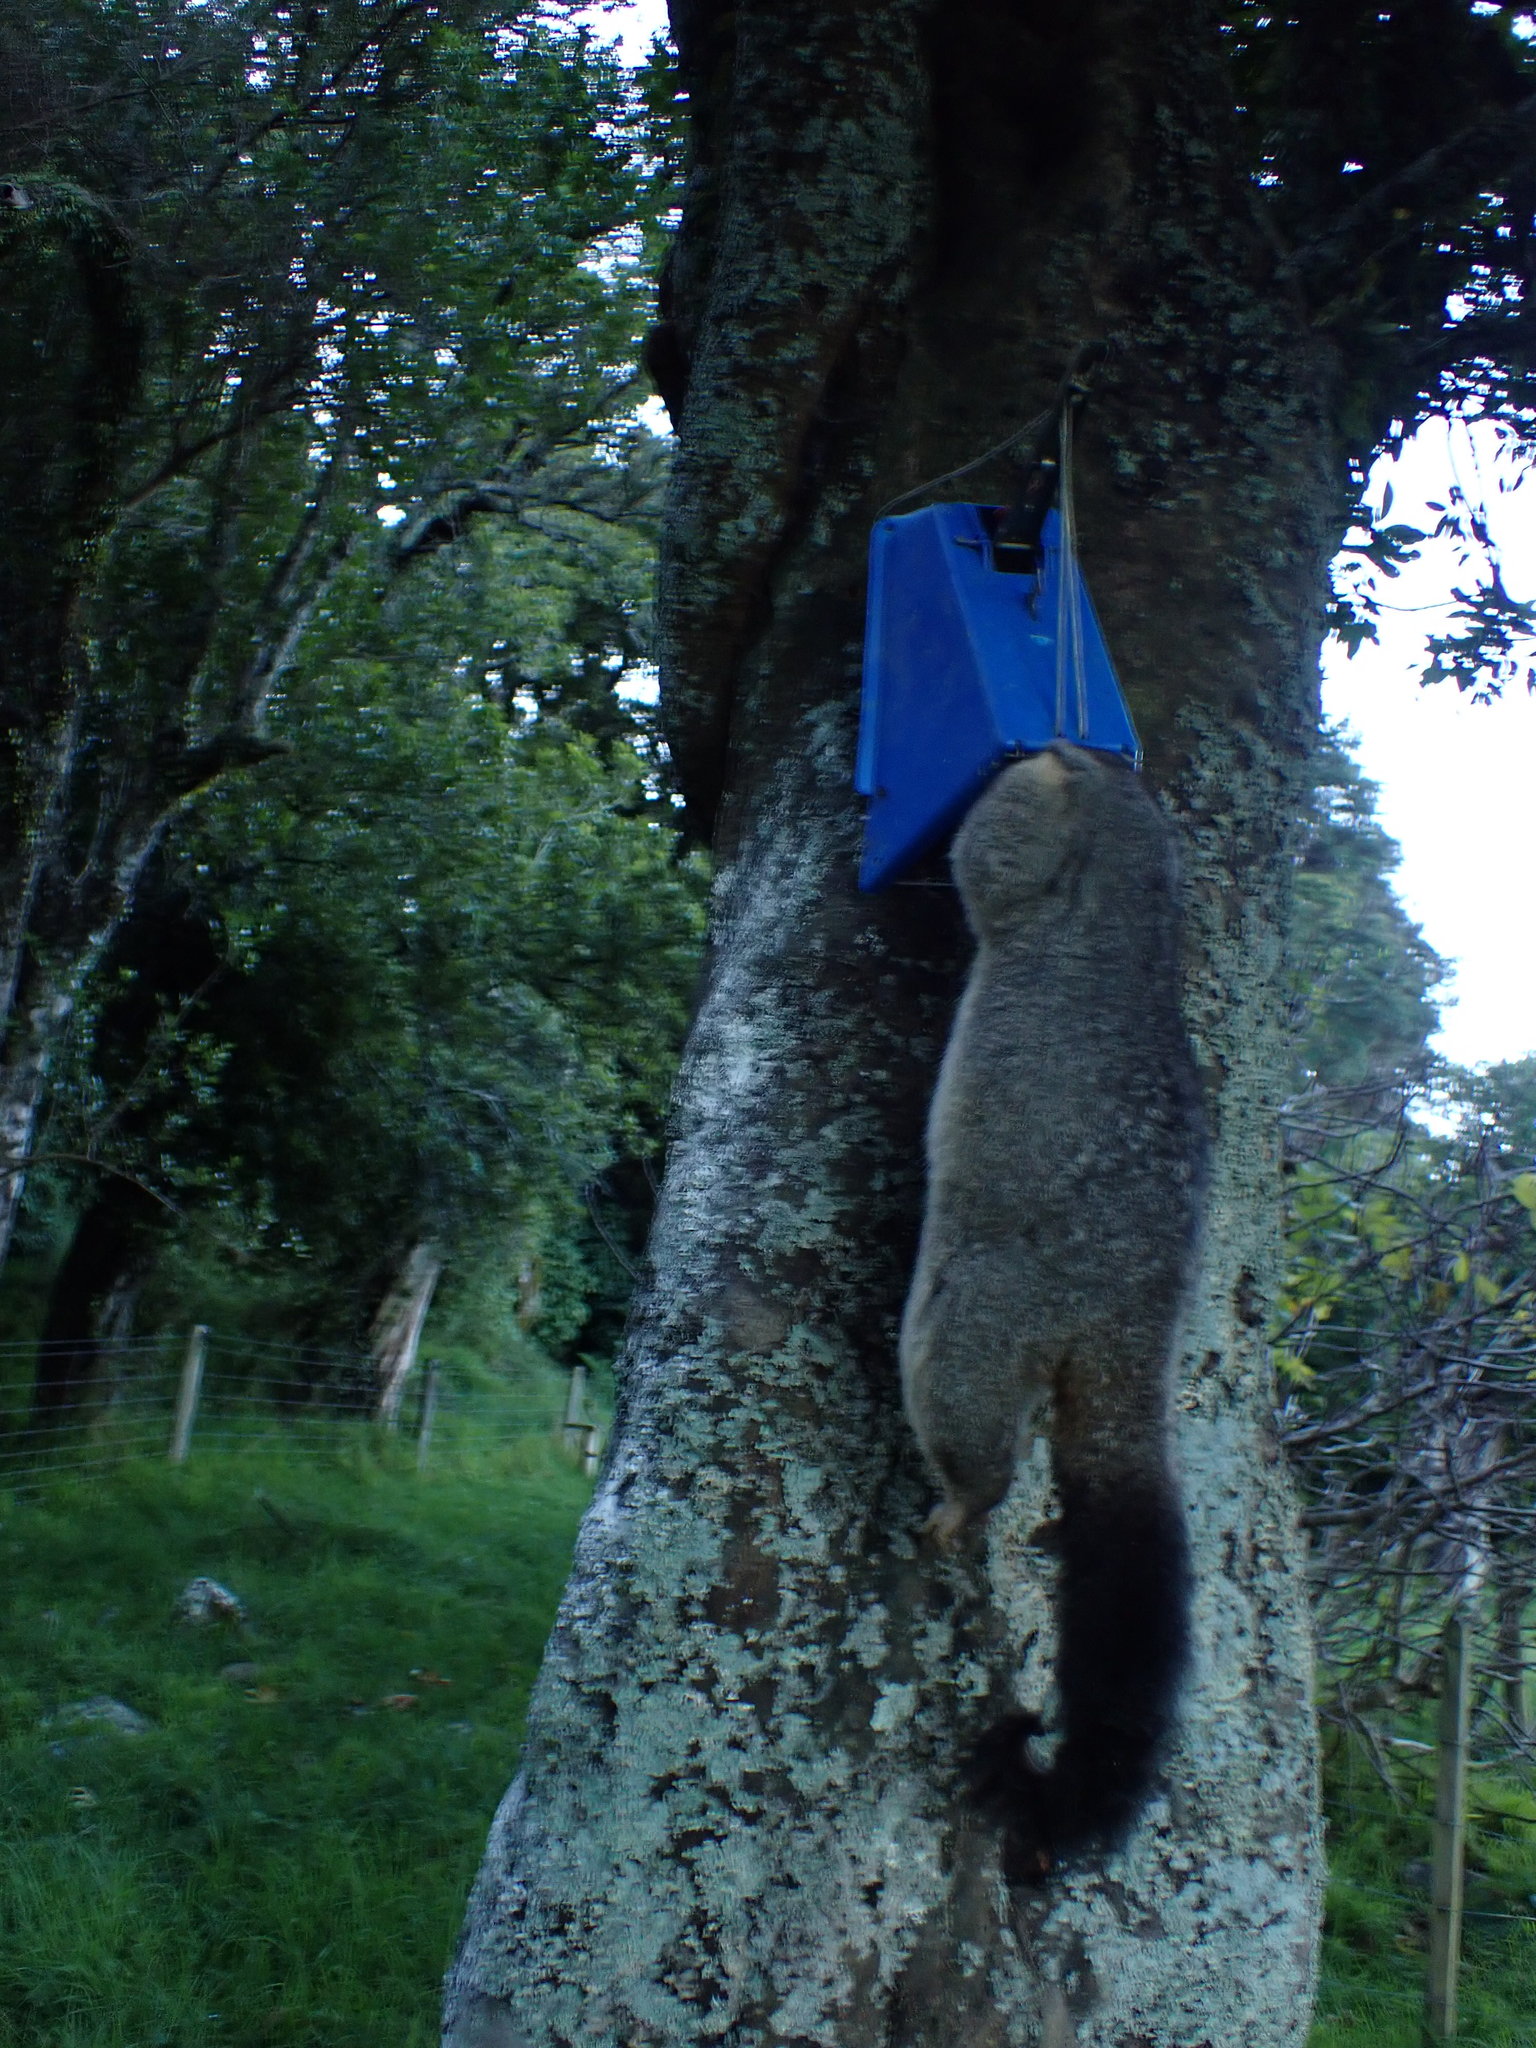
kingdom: Animalia
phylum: Chordata
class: Mammalia
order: Diprotodontia
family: Phalangeridae
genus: Trichosurus
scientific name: Trichosurus vulpecula
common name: Common brushtail
